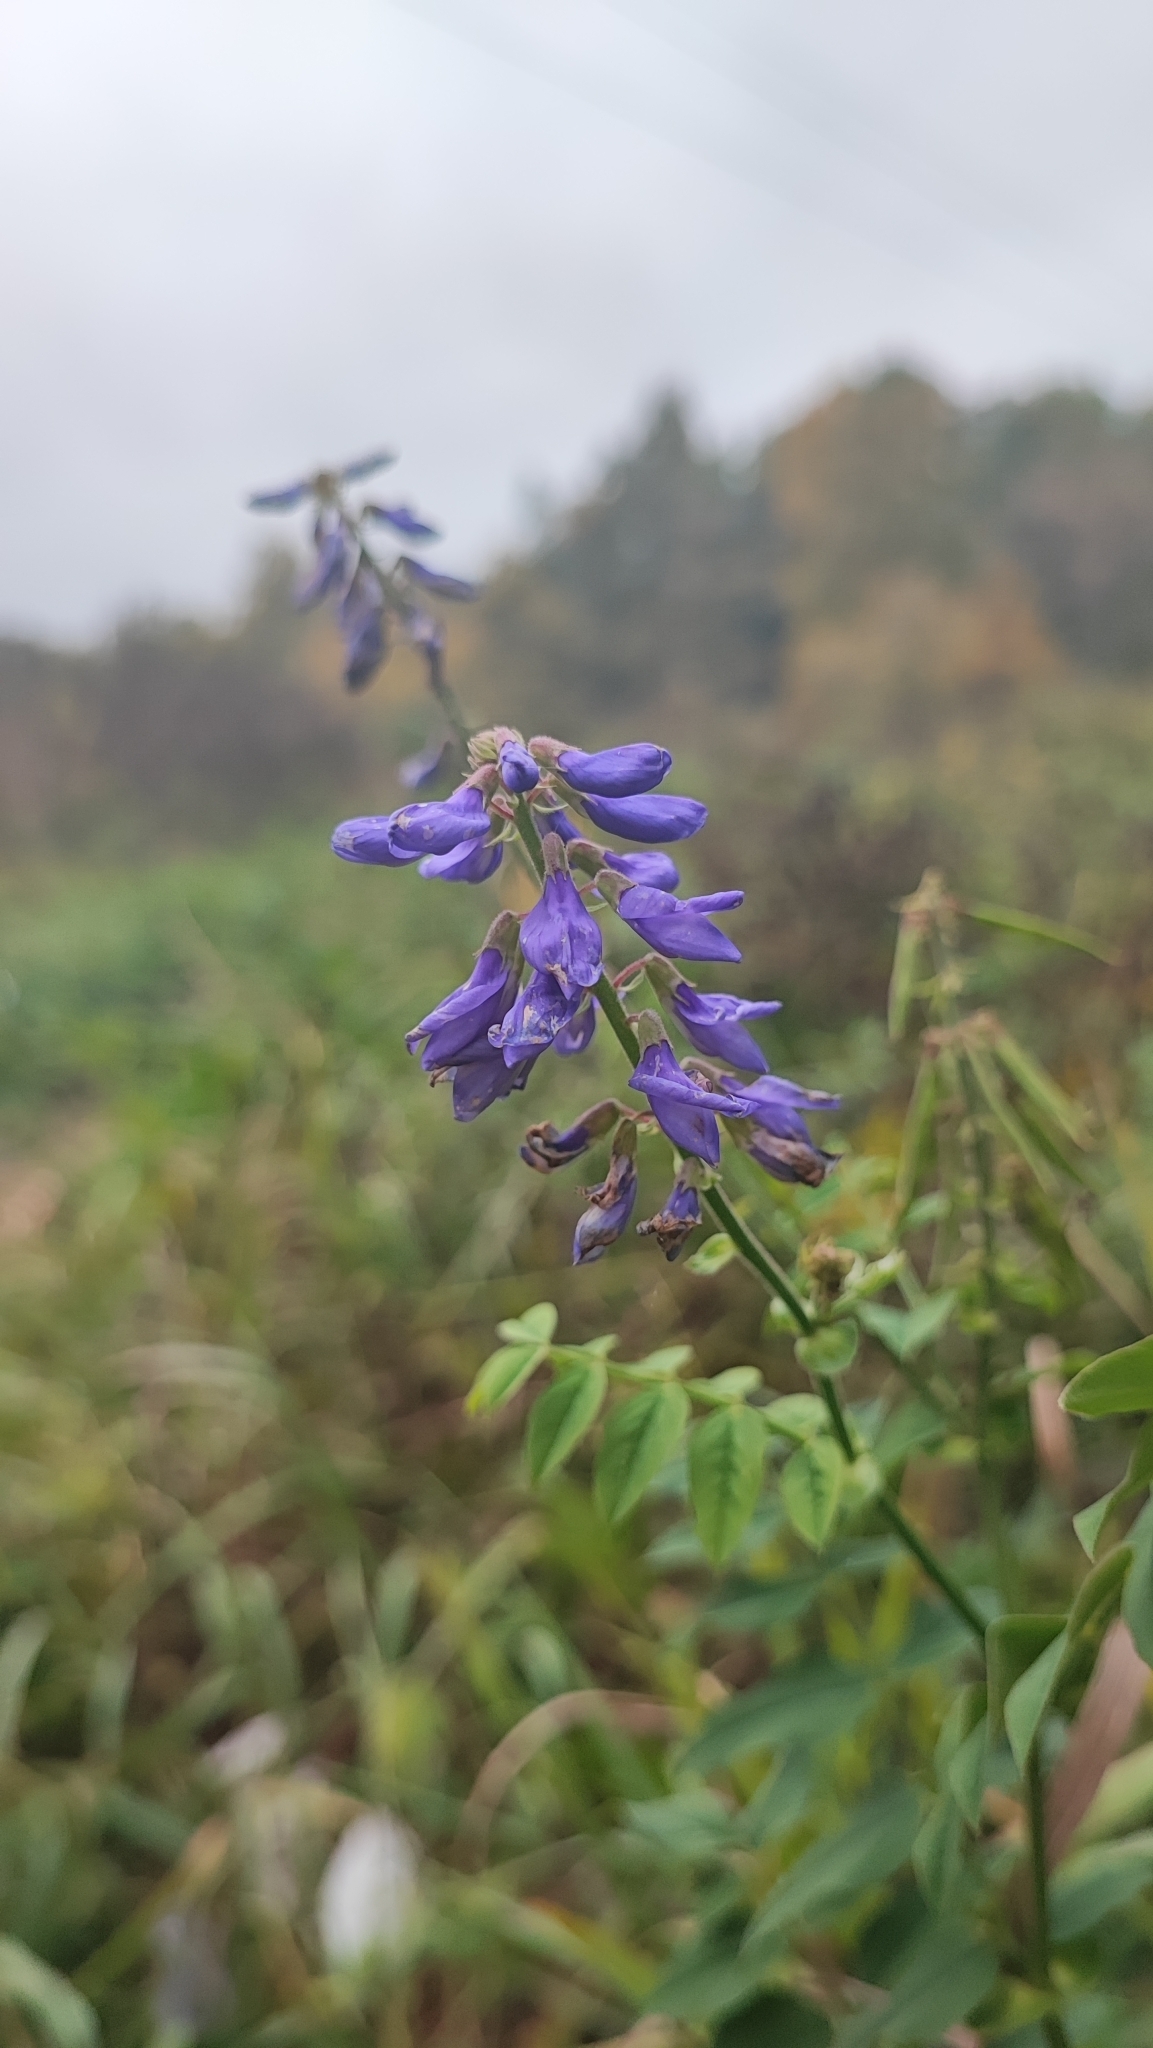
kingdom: Plantae
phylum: Tracheophyta
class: Magnoliopsida
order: Fabales
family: Fabaceae
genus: Galega
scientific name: Galega orientalis
